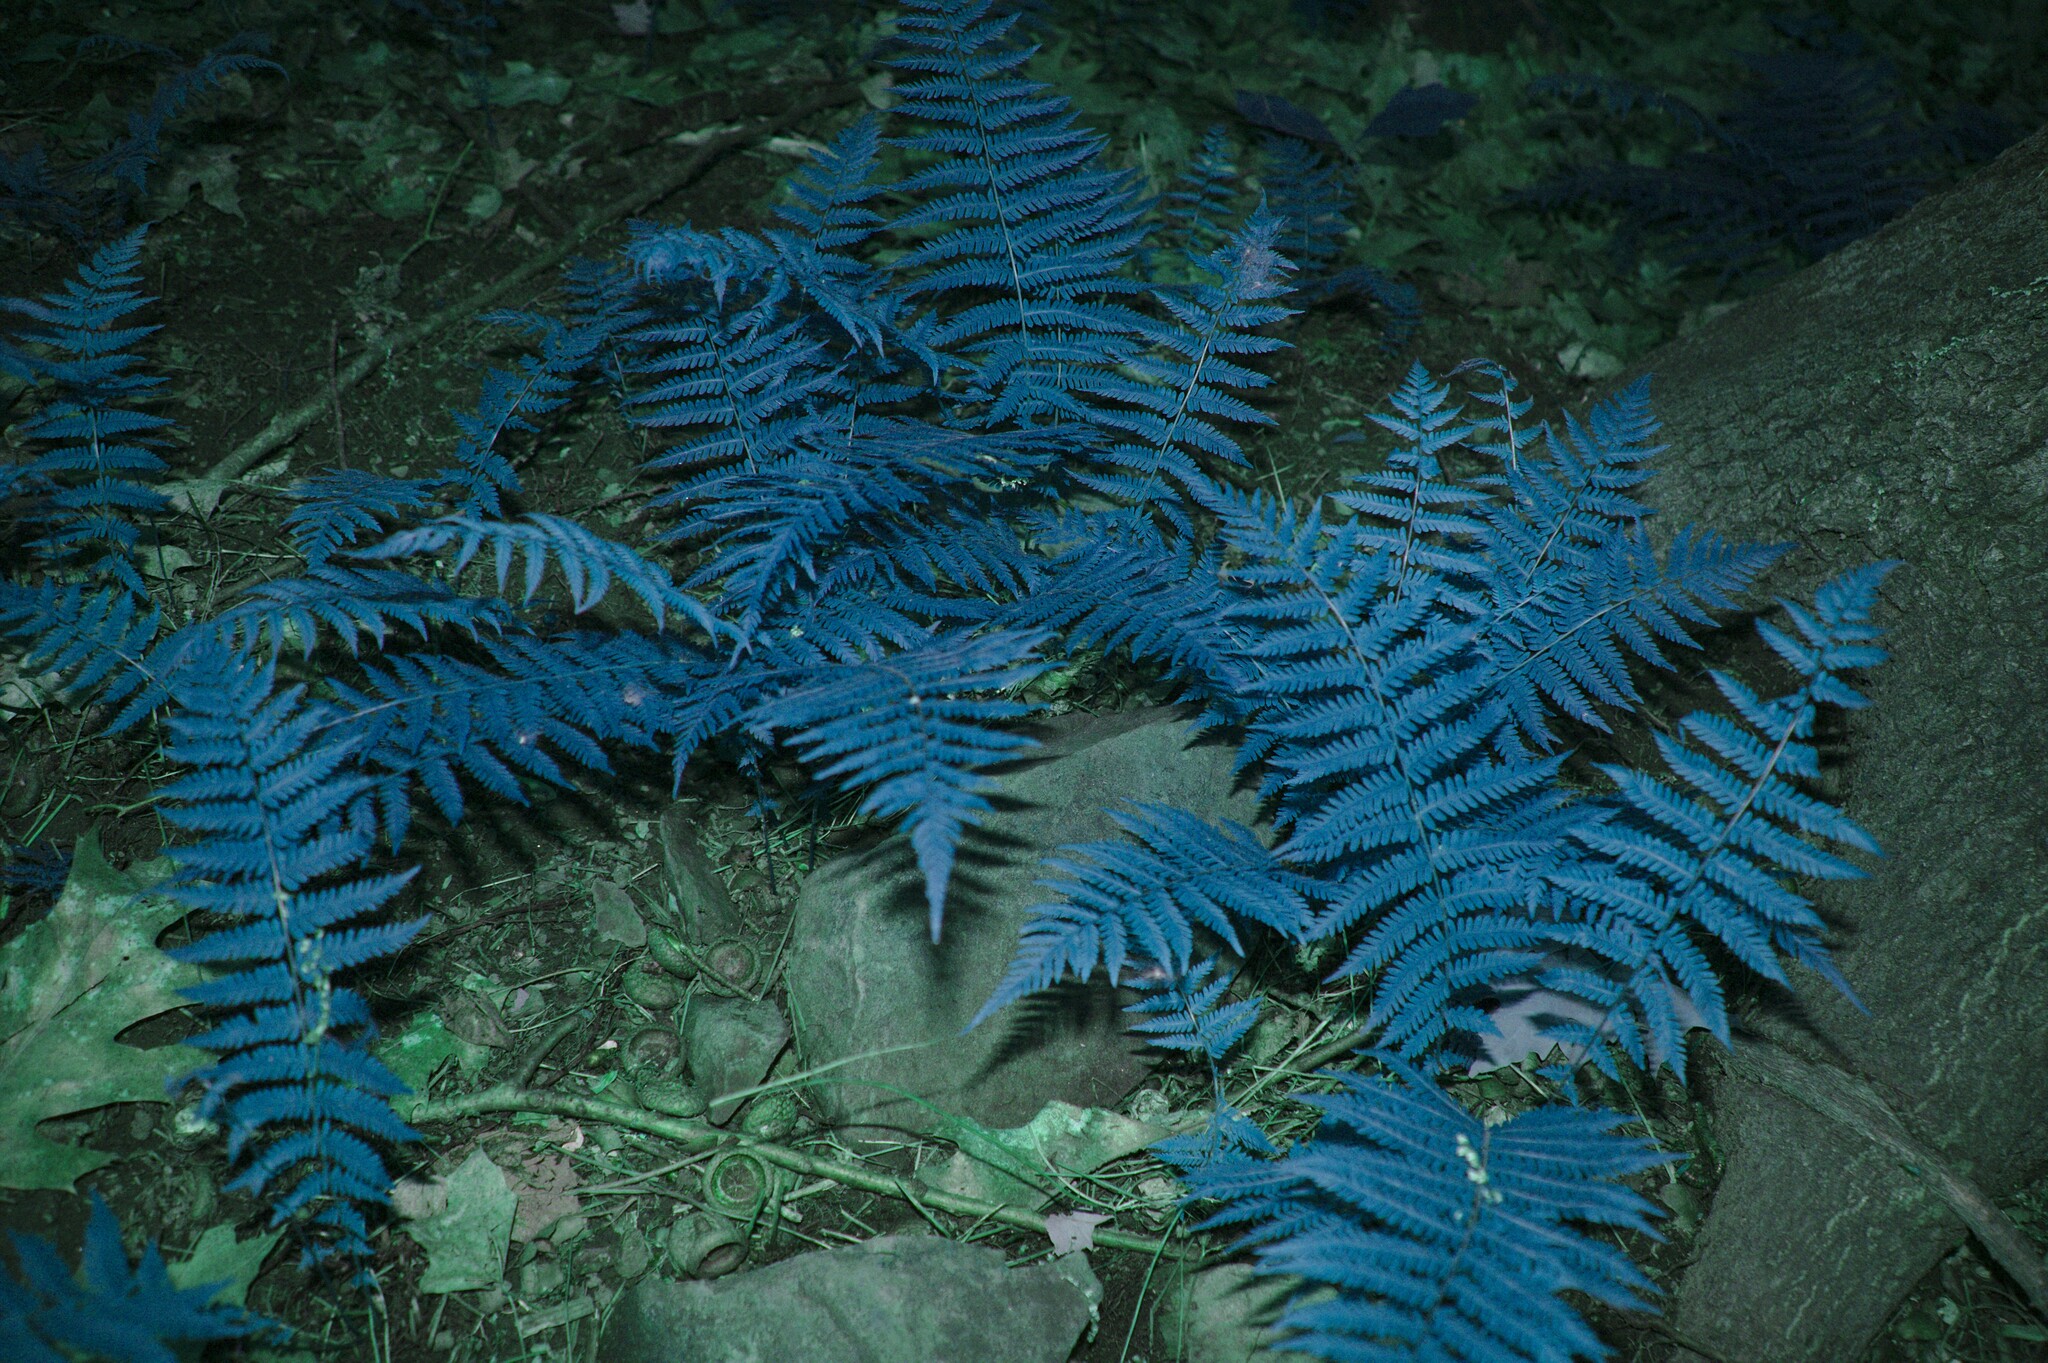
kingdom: Plantae
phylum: Tracheophyta
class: Polypodiopsida
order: Polypodiales
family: Thelypteridaceae
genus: Amauropelta
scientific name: Amauropelta noveboracensis
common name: New york fern
